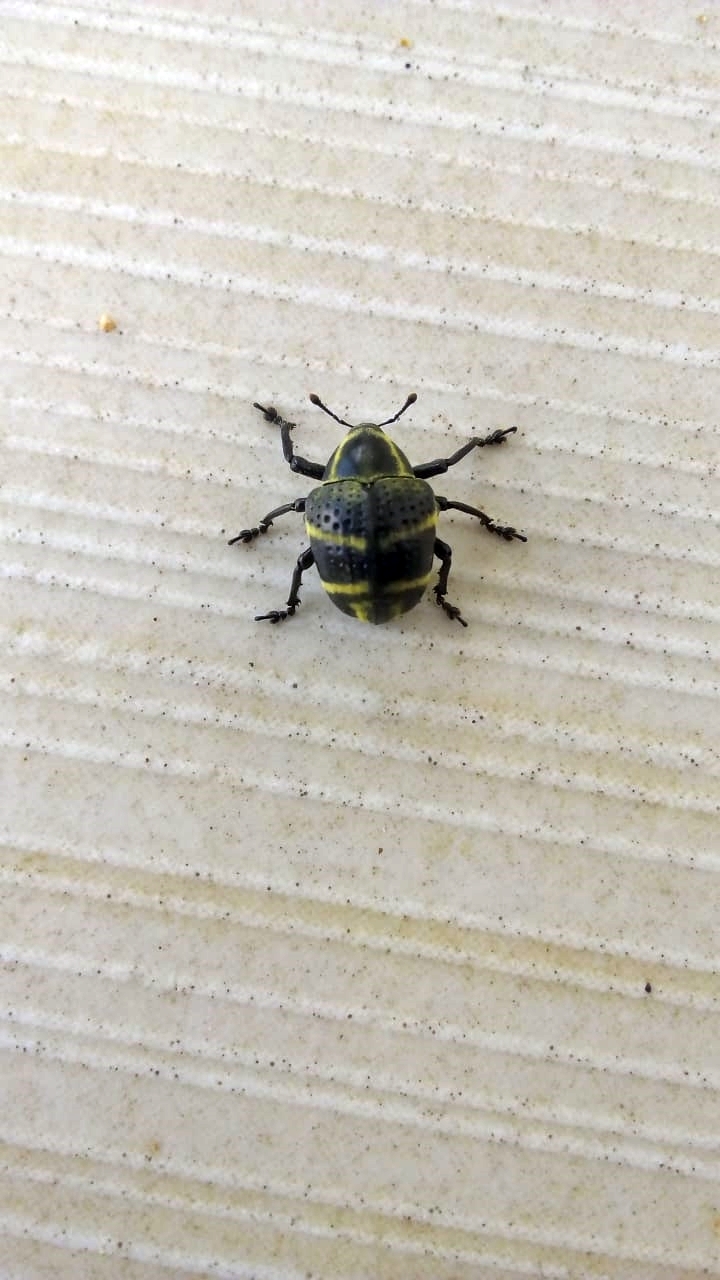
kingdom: Animalia
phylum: Arthropoda
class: Insecta
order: Coleoptera
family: Curculionidae
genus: Sternechus
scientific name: Sternechus subsignatus
